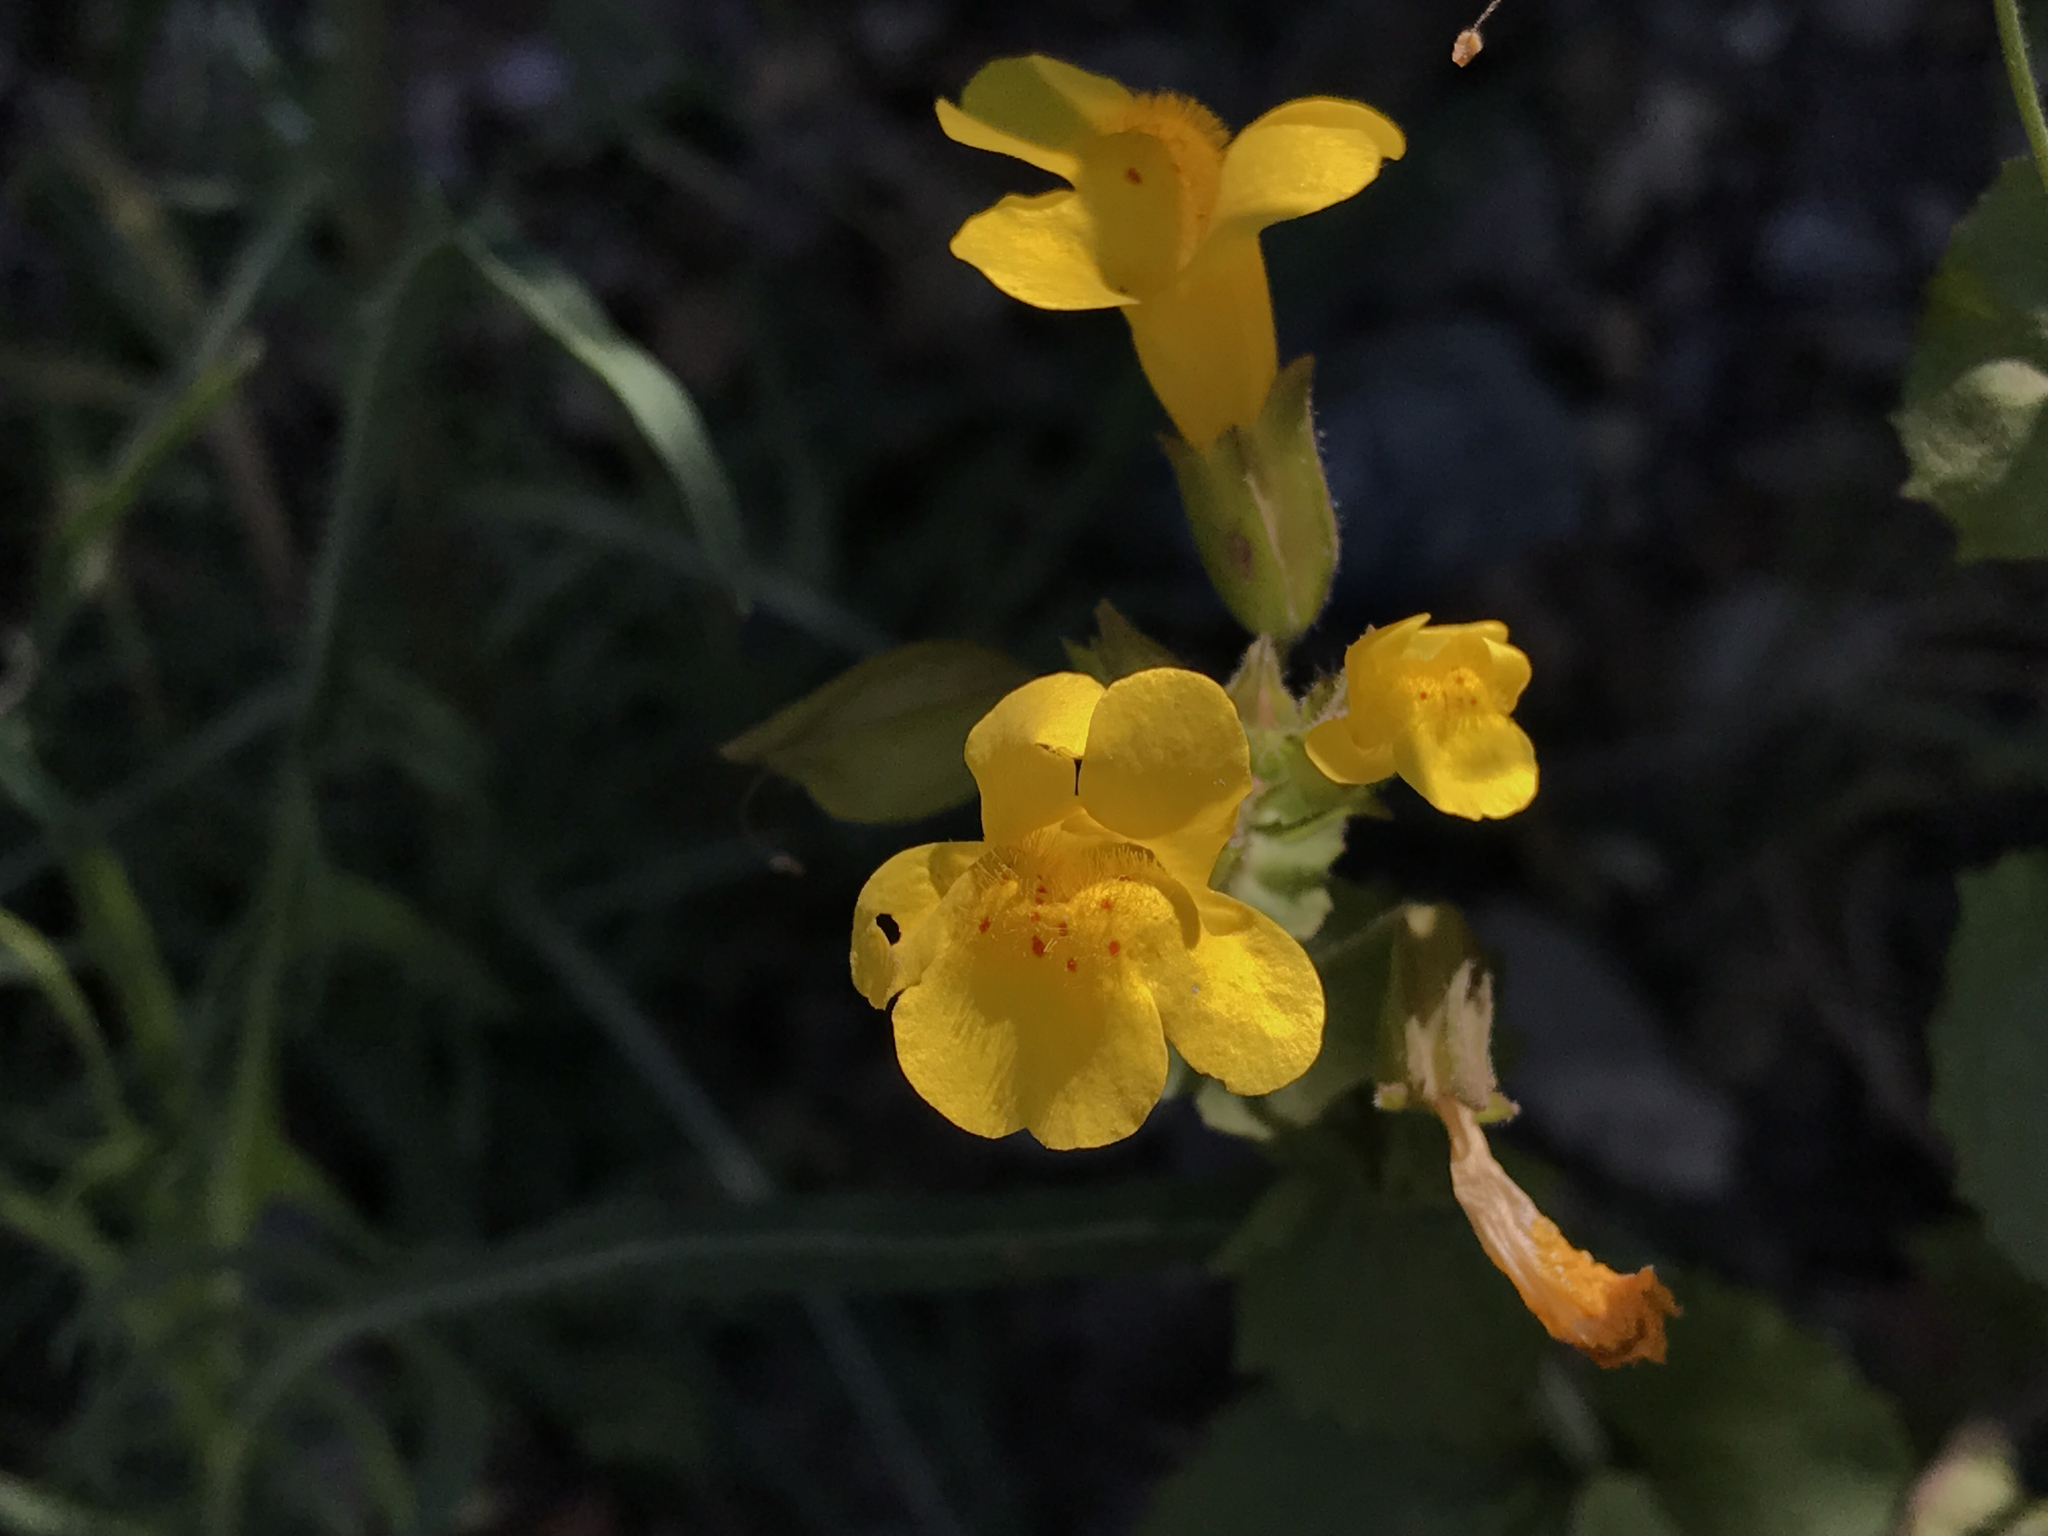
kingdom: Plantae
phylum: Tracheophyta
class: Magnoliopsida
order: Lamiales
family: Phrymaceae
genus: Erythranthe
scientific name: Erythranthe guttata
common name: Monkeyflower
